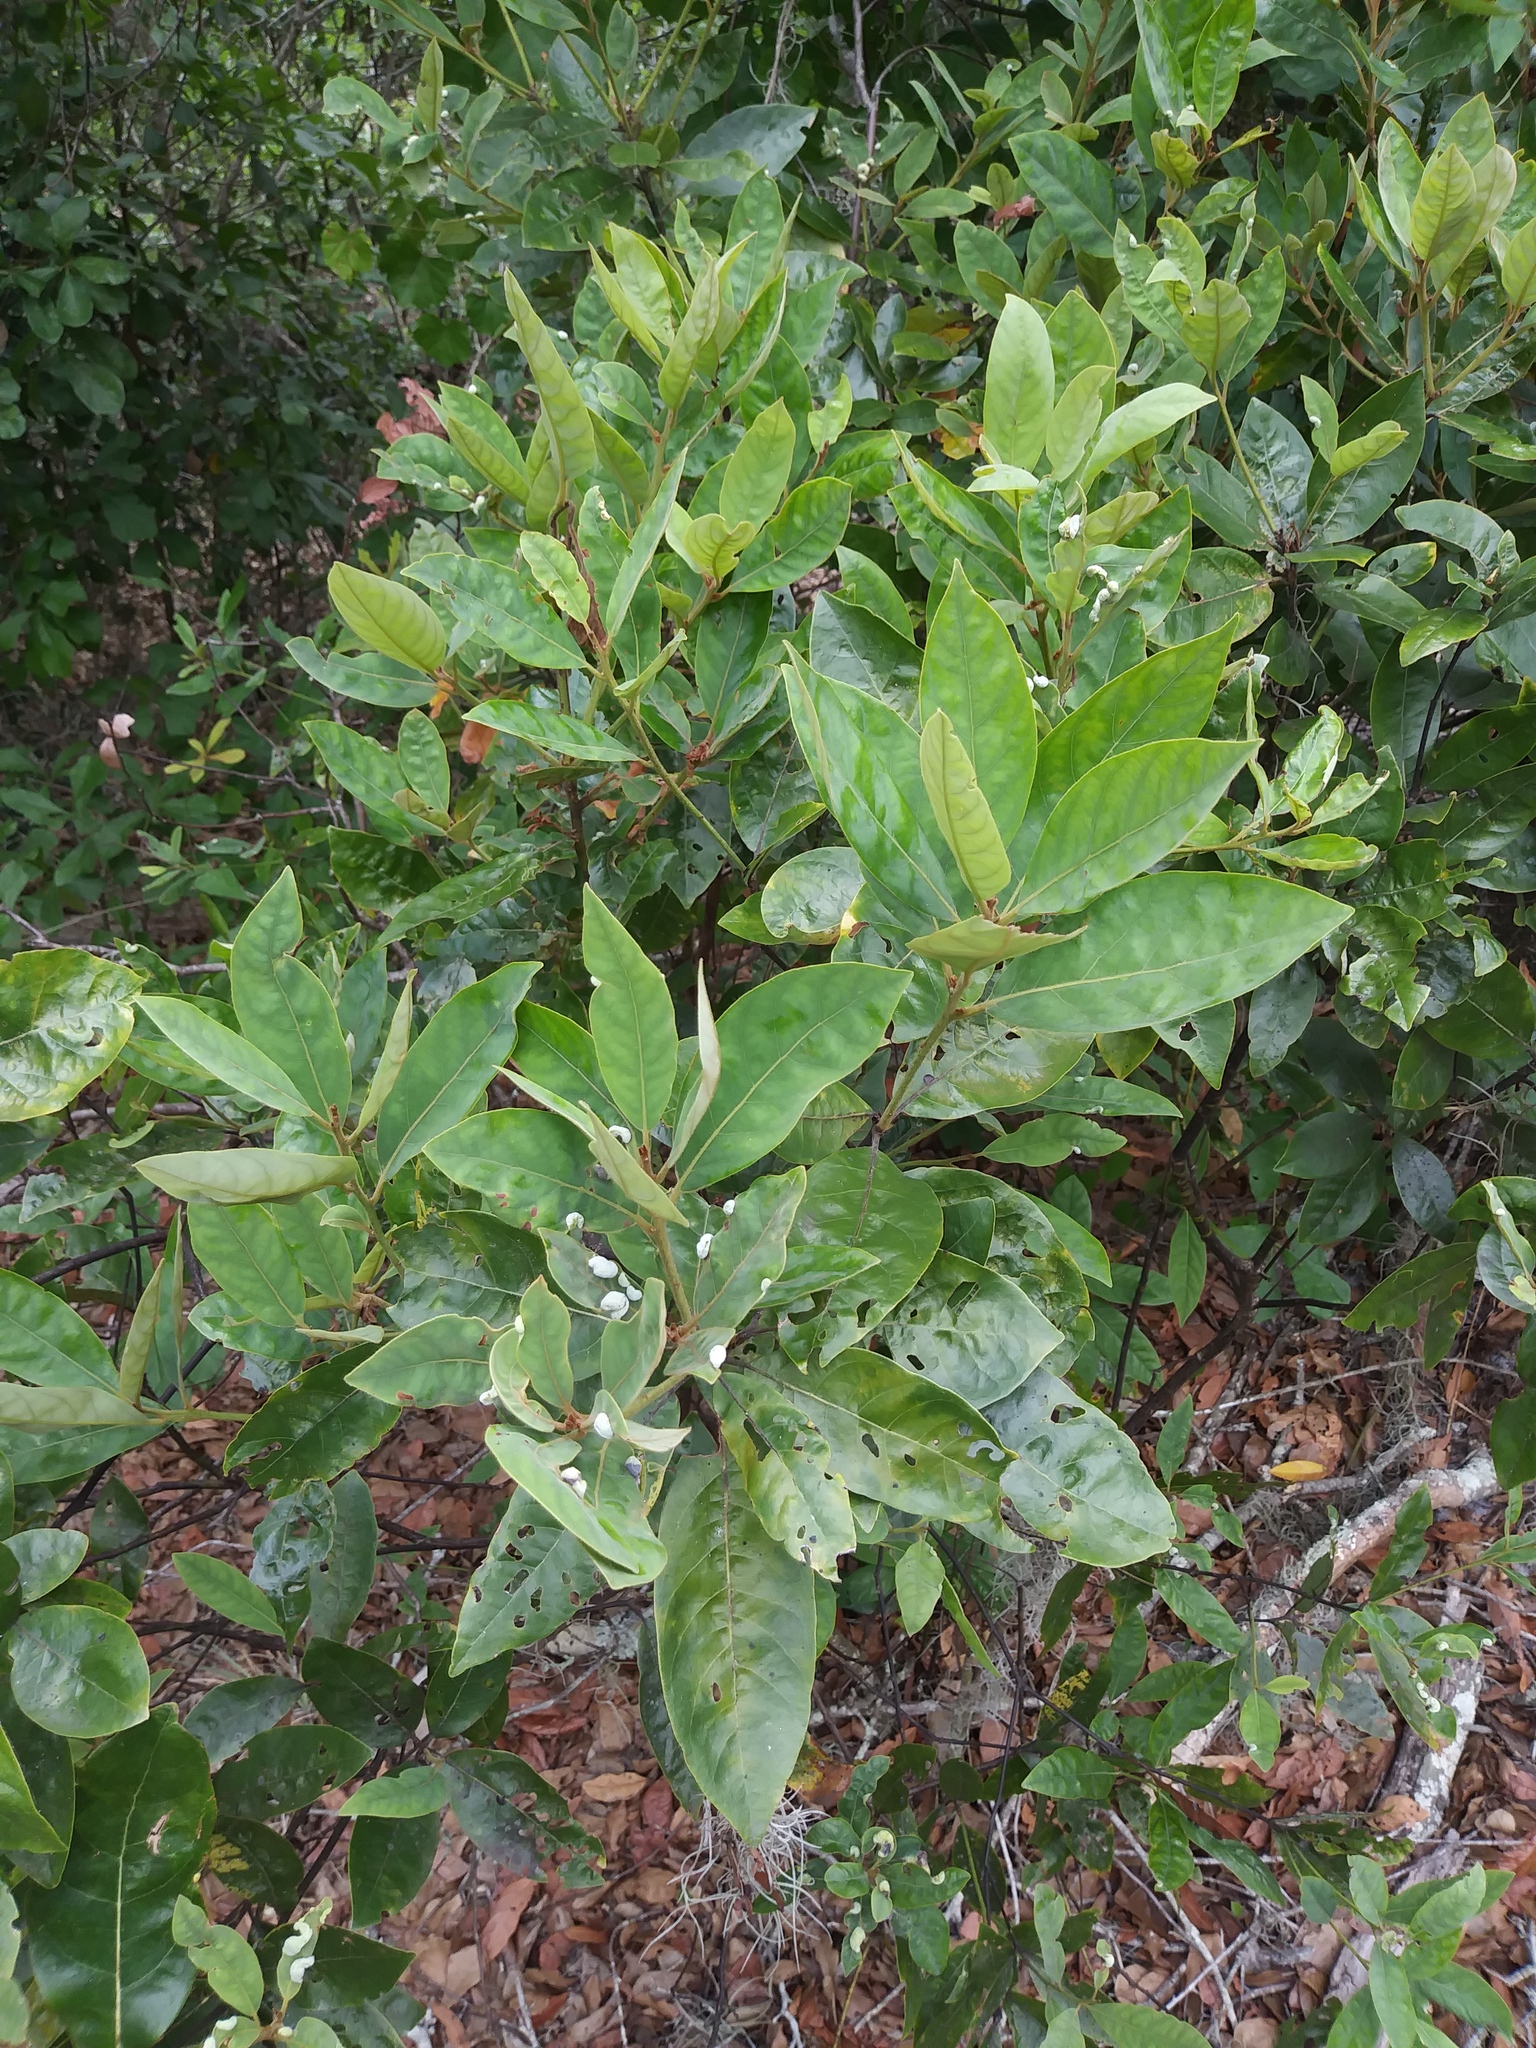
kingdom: Plantae
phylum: Tracheophyta
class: Magnoliopsida
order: Laurales
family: Lauraceae
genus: Persea
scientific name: Persea palustris
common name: Swampbay
